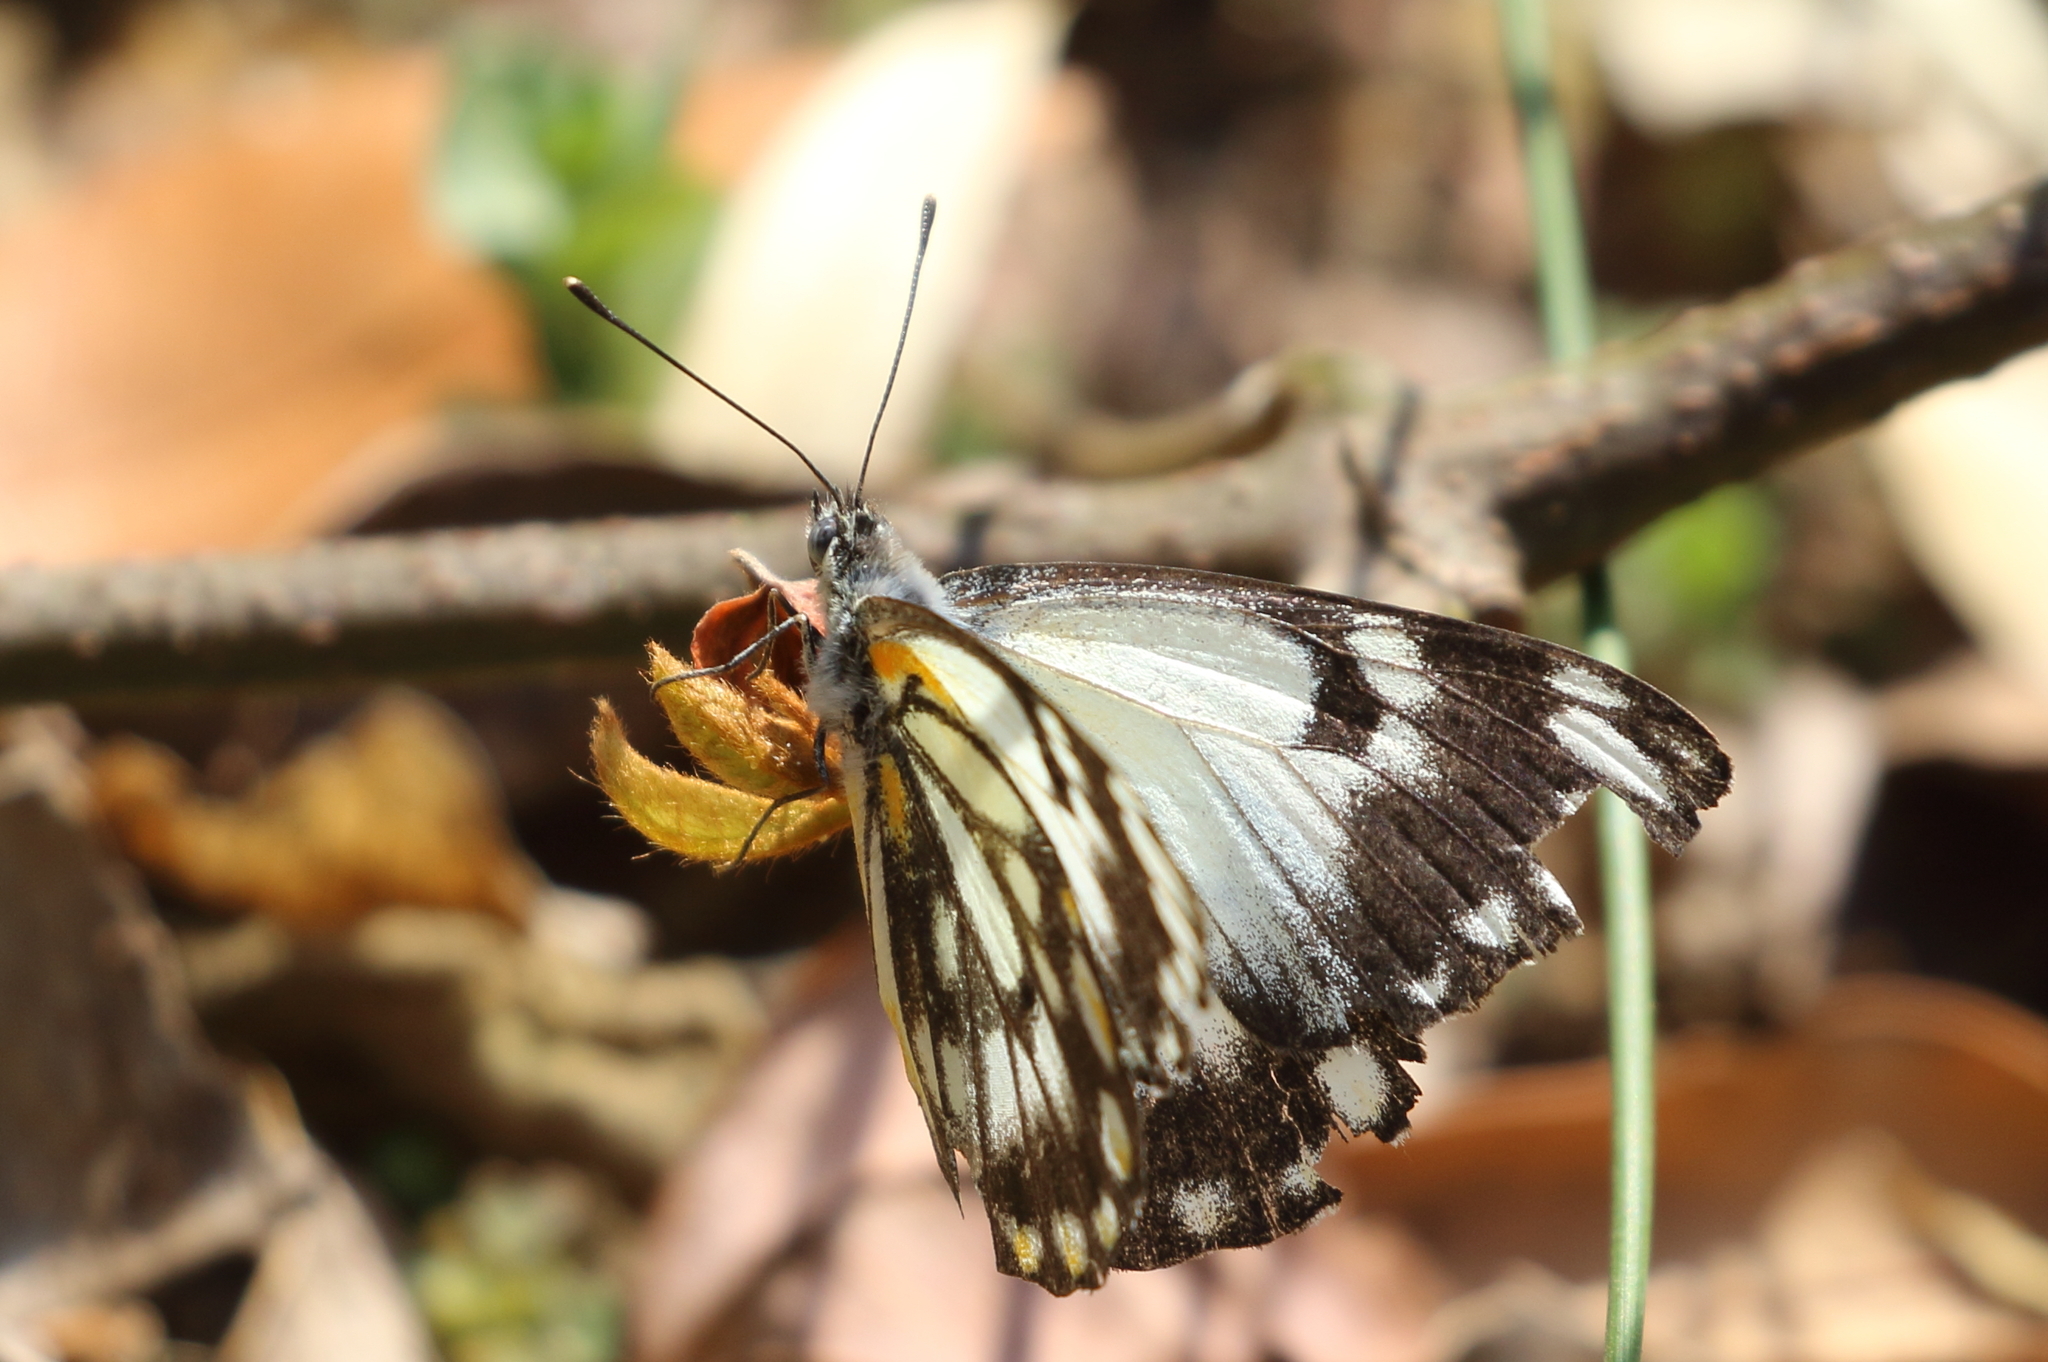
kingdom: Animalia
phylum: Arthropoda
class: Insecta
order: Lepidoptera
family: Pieridae
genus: Belenois
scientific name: Belenois java
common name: Caper white
